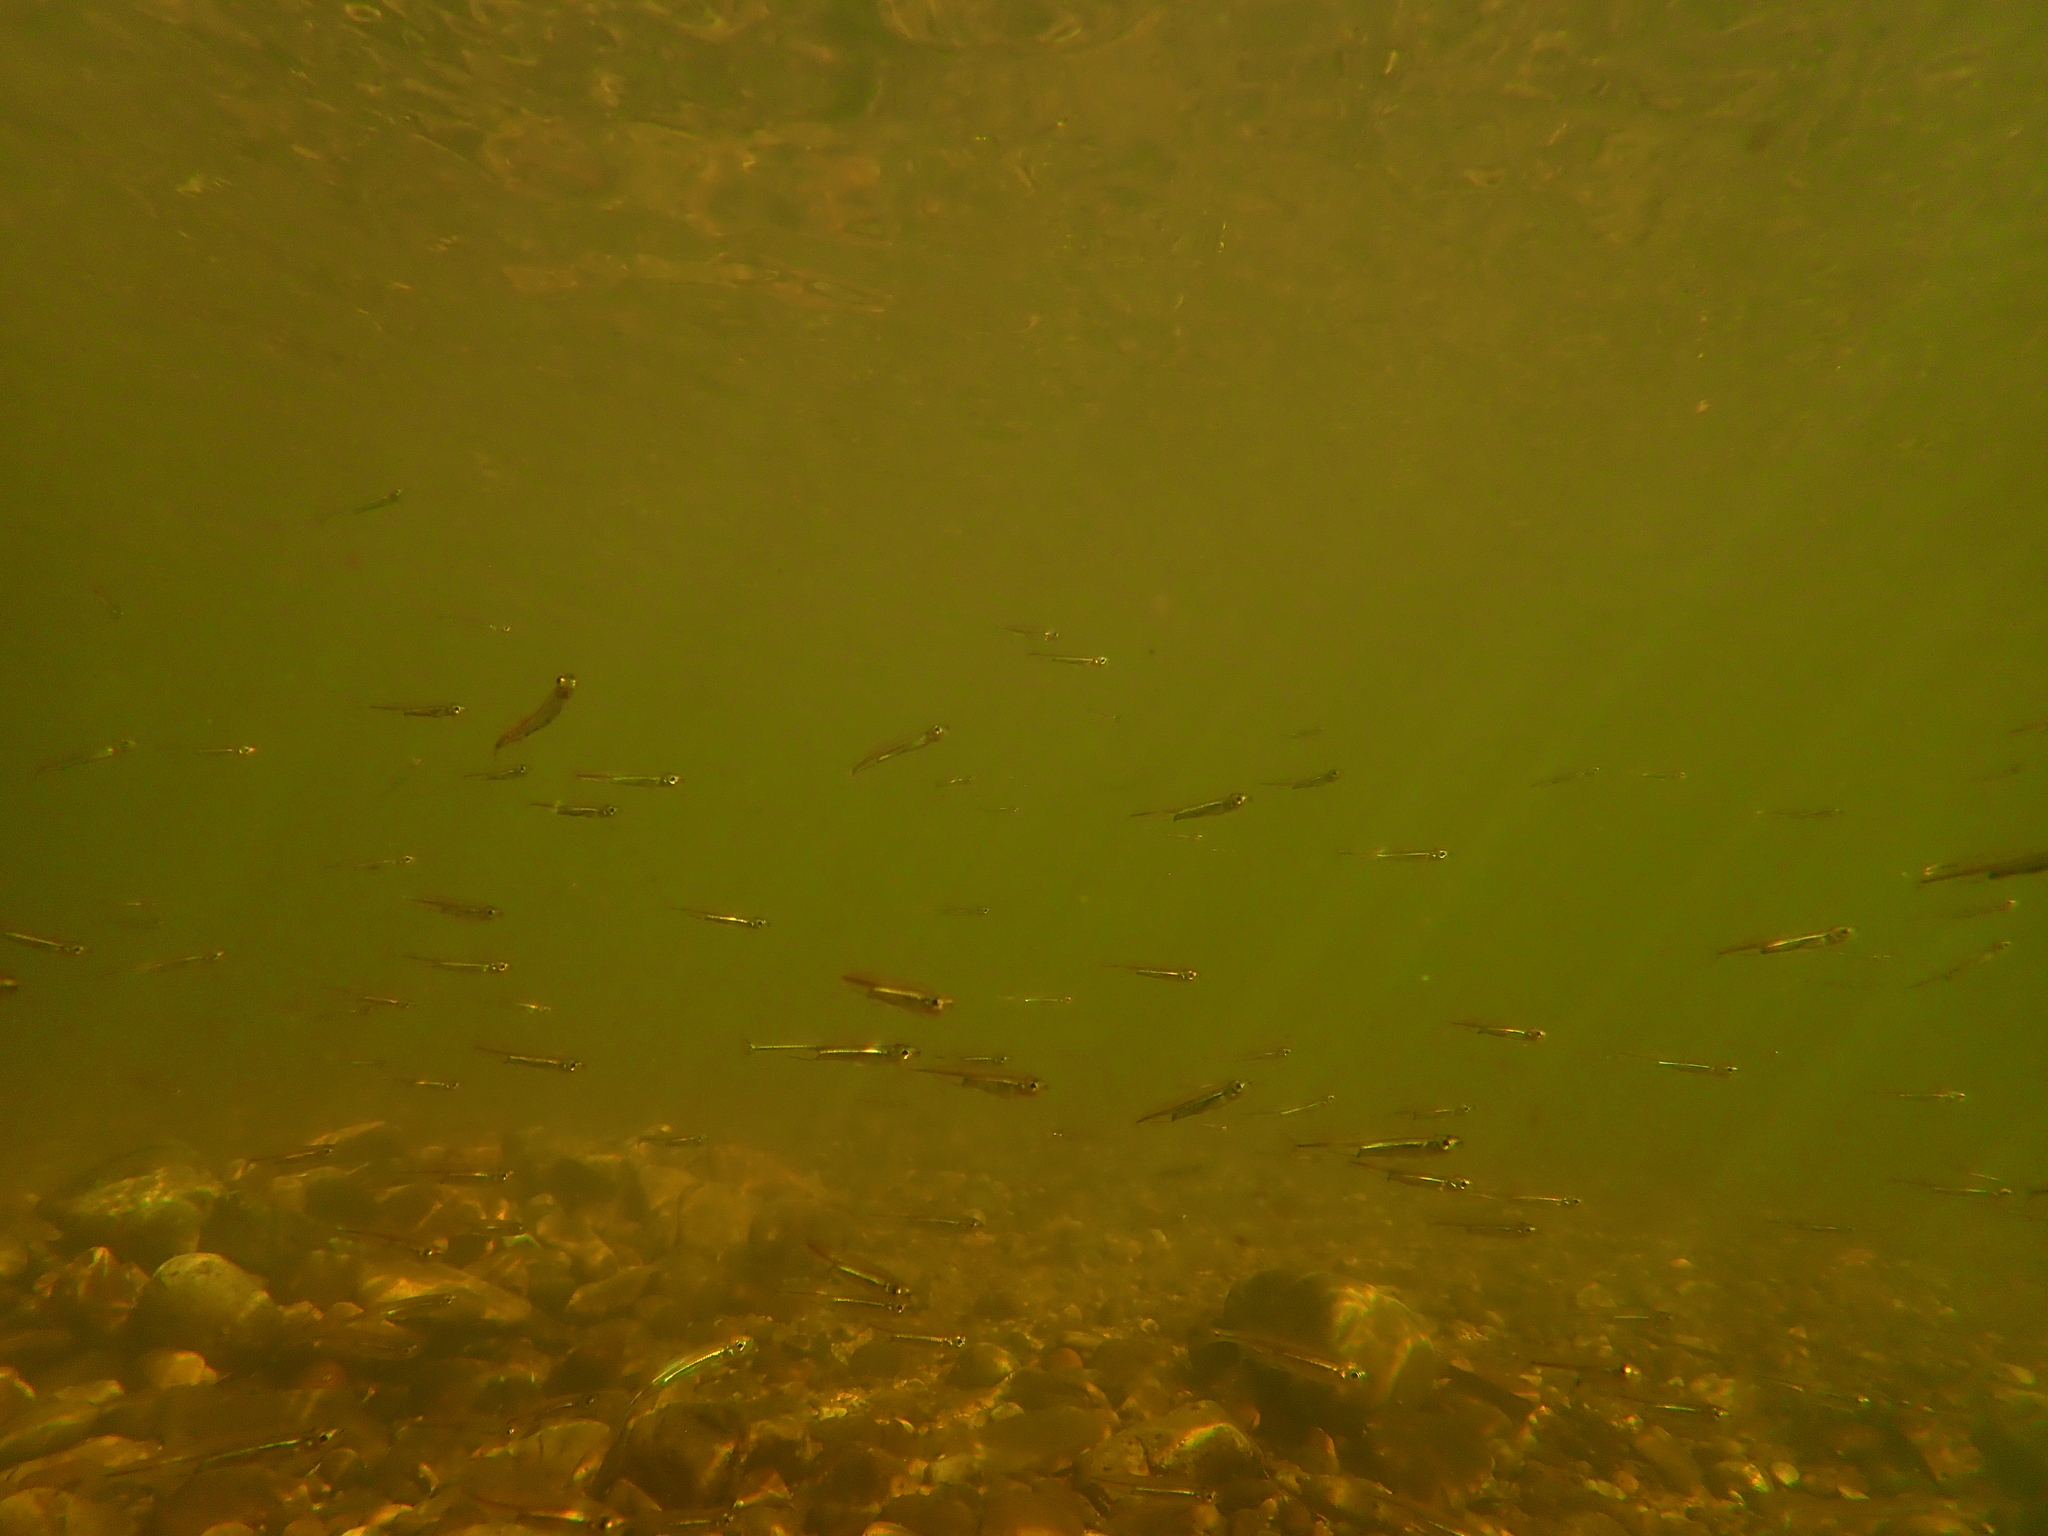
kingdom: Animalia
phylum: Chordata
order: Osmeriformes
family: Retropinnidae
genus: Retropinna
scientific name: Retropinna semoni
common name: Australian smelt
